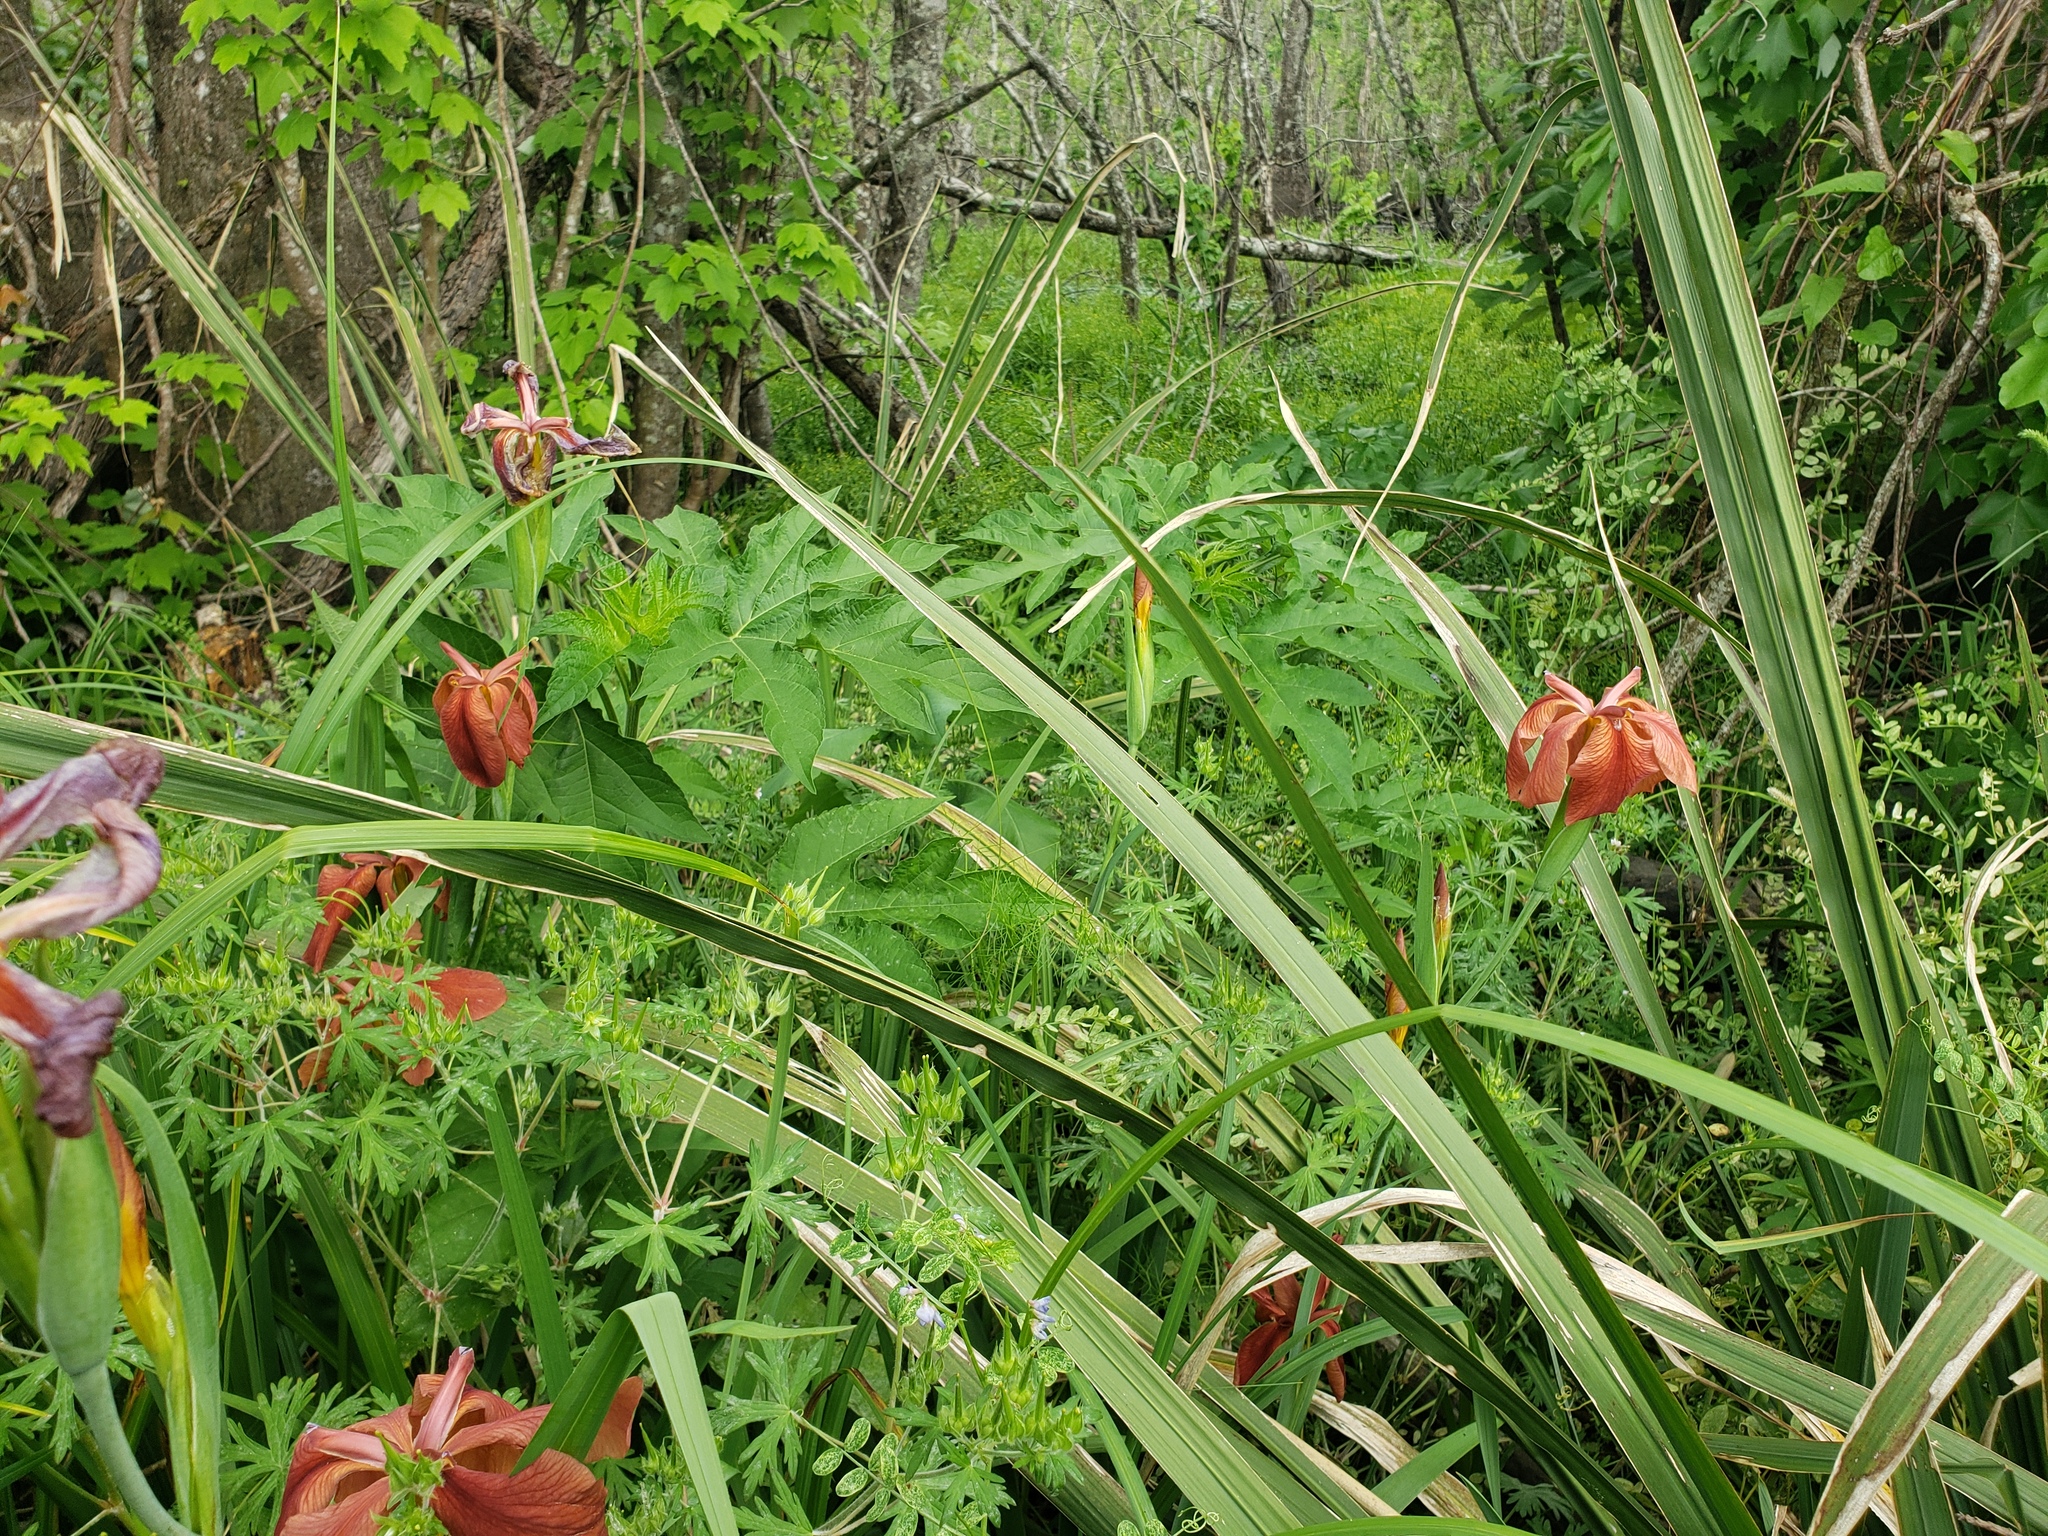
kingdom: Plantae
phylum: Tracheophyta
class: Liliopsida
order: Asparagales
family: Iridaceae
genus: Iris
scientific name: Iris fulva
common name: Copper iris
